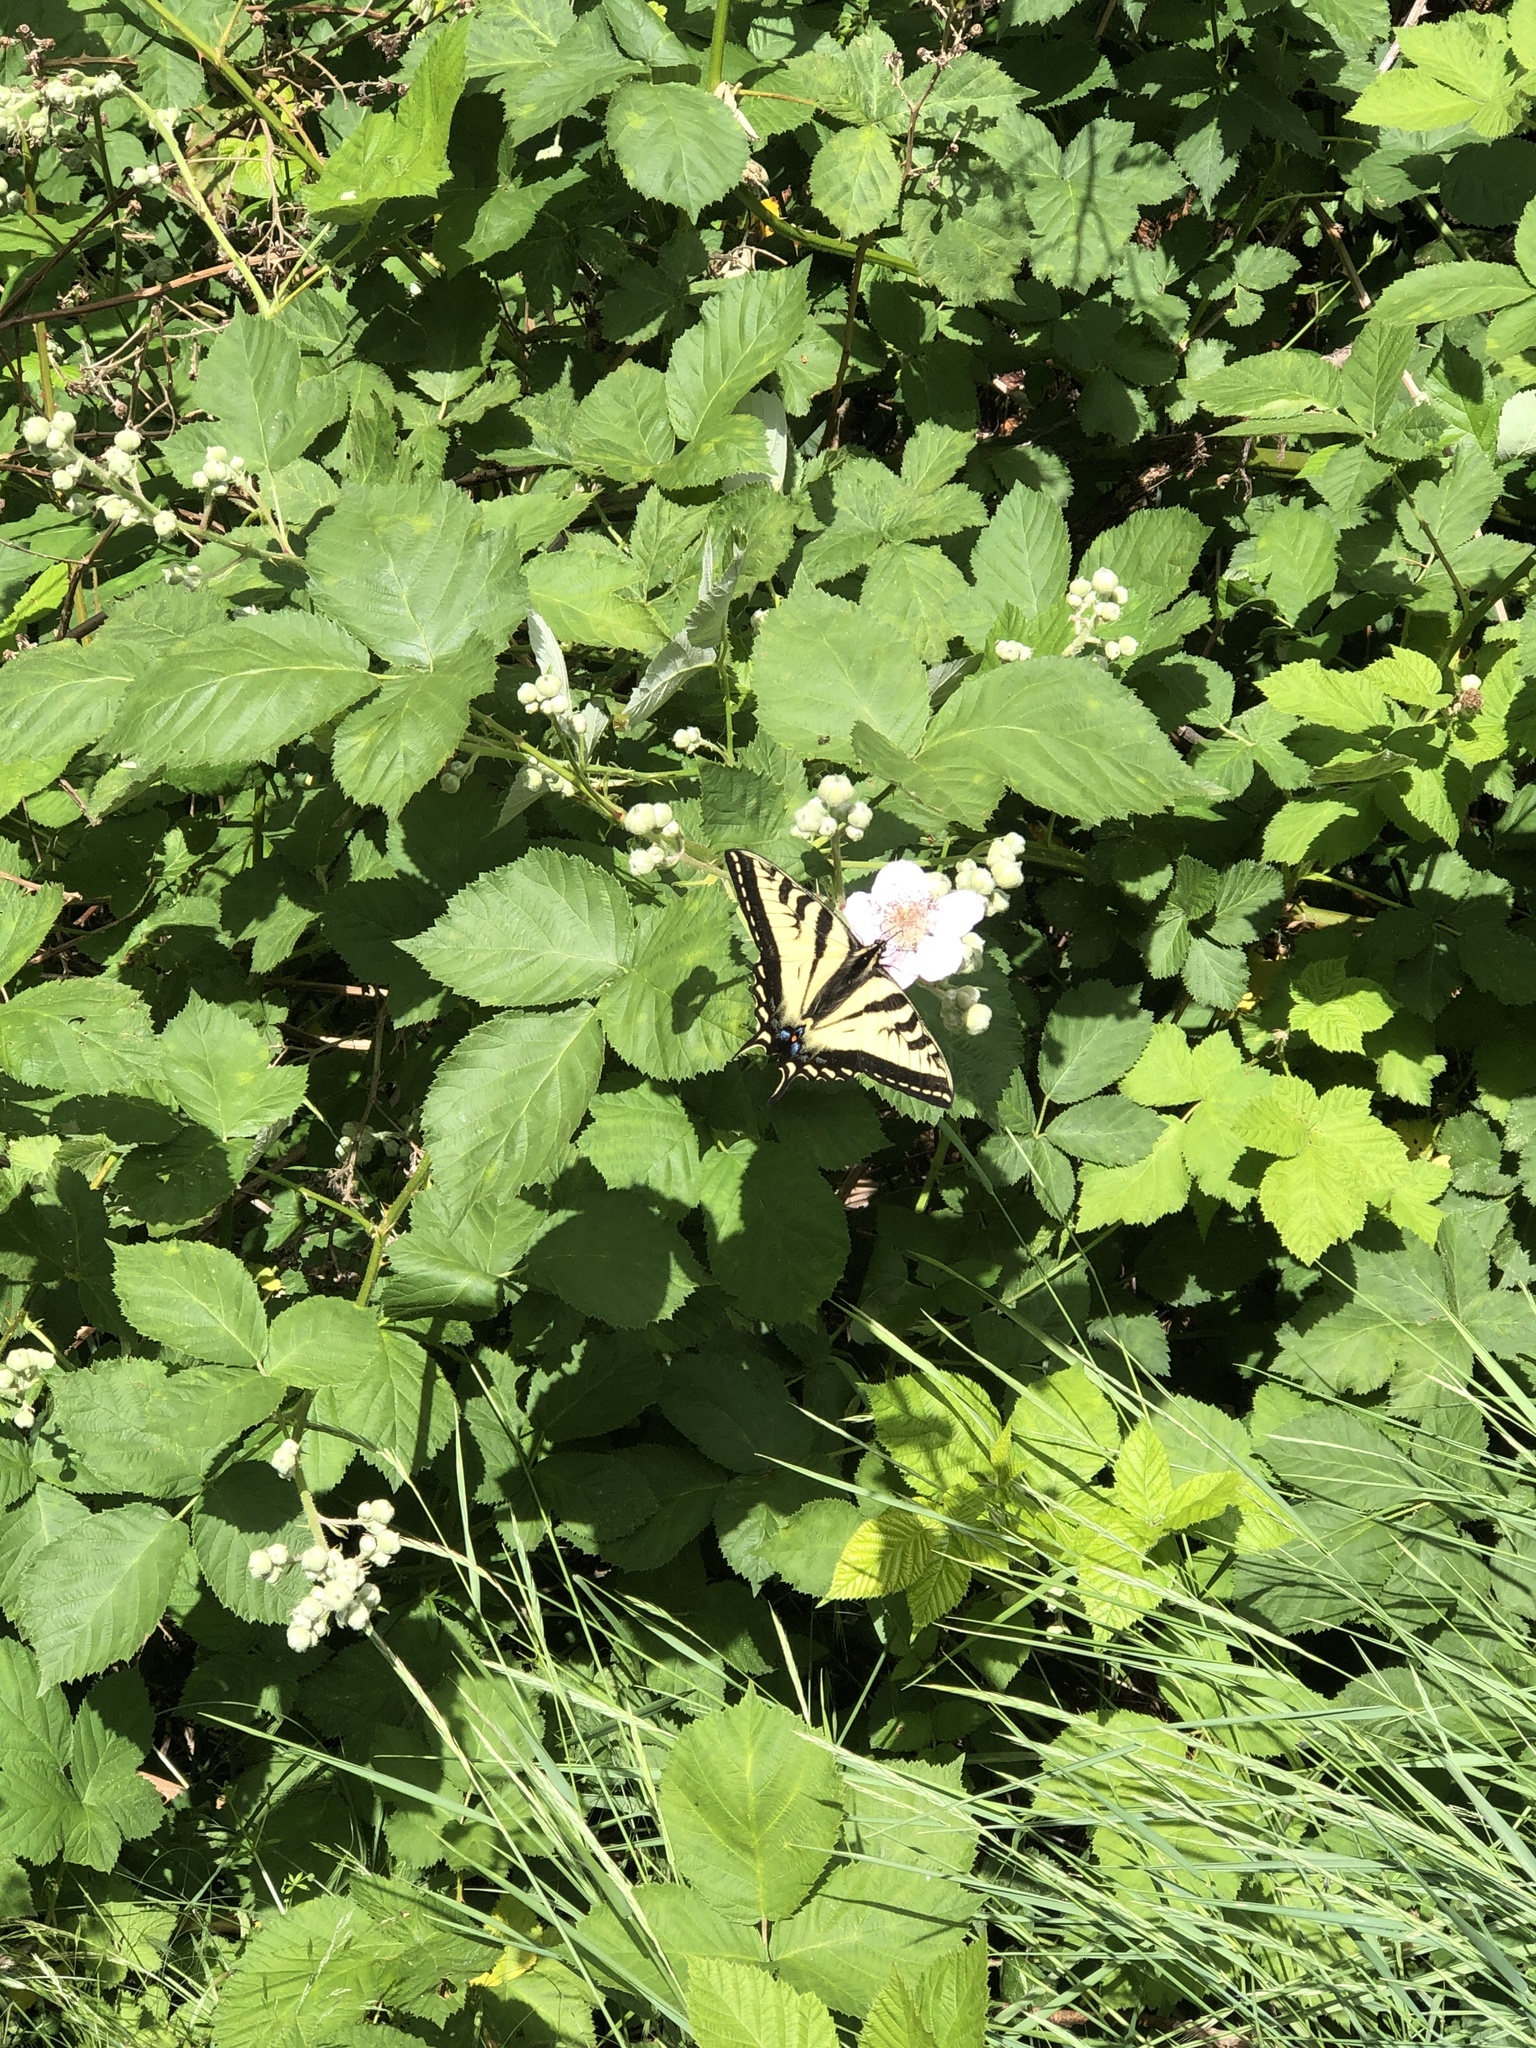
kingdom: Animalia
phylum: Arthropoda
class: Insecta
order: Lepidoptera
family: Papilionidae
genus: Papilio
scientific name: Papilio rutulus
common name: Western tiger swallowtail
